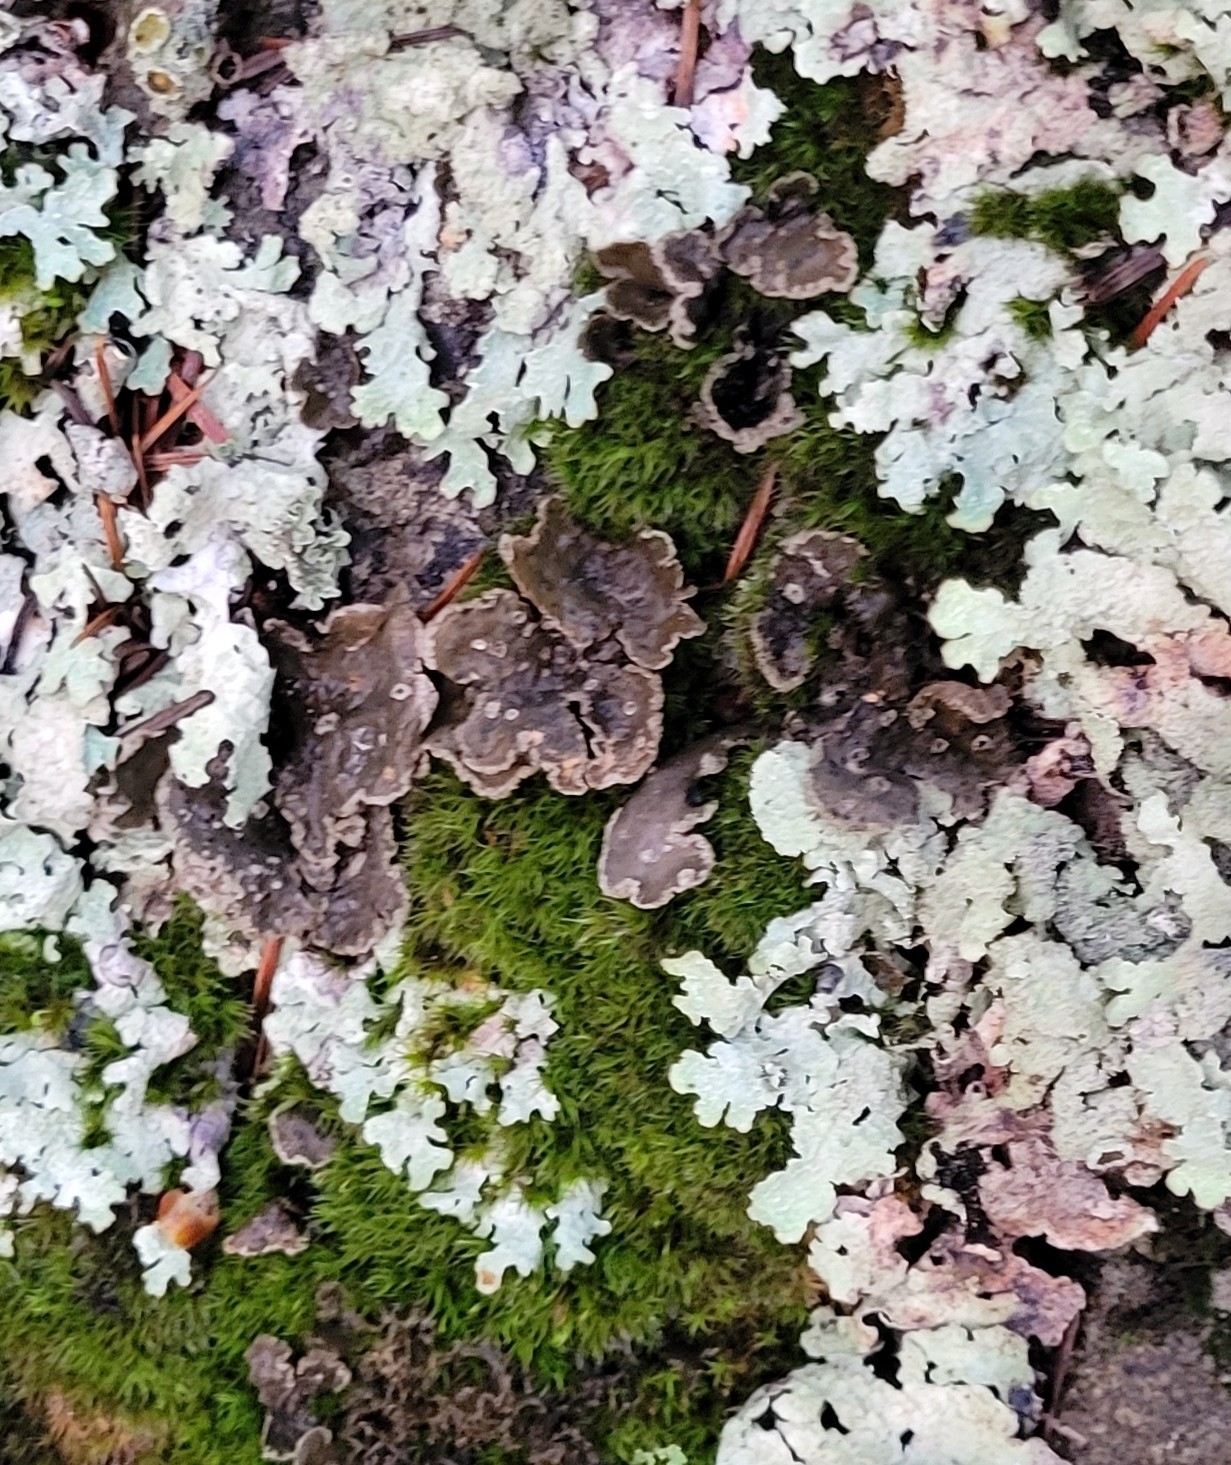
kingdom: Fungi
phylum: Ascomycota
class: Lecanoromycetes
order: Peltigerales
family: Lobariaceae
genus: Sticta
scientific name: Sticta limbata
